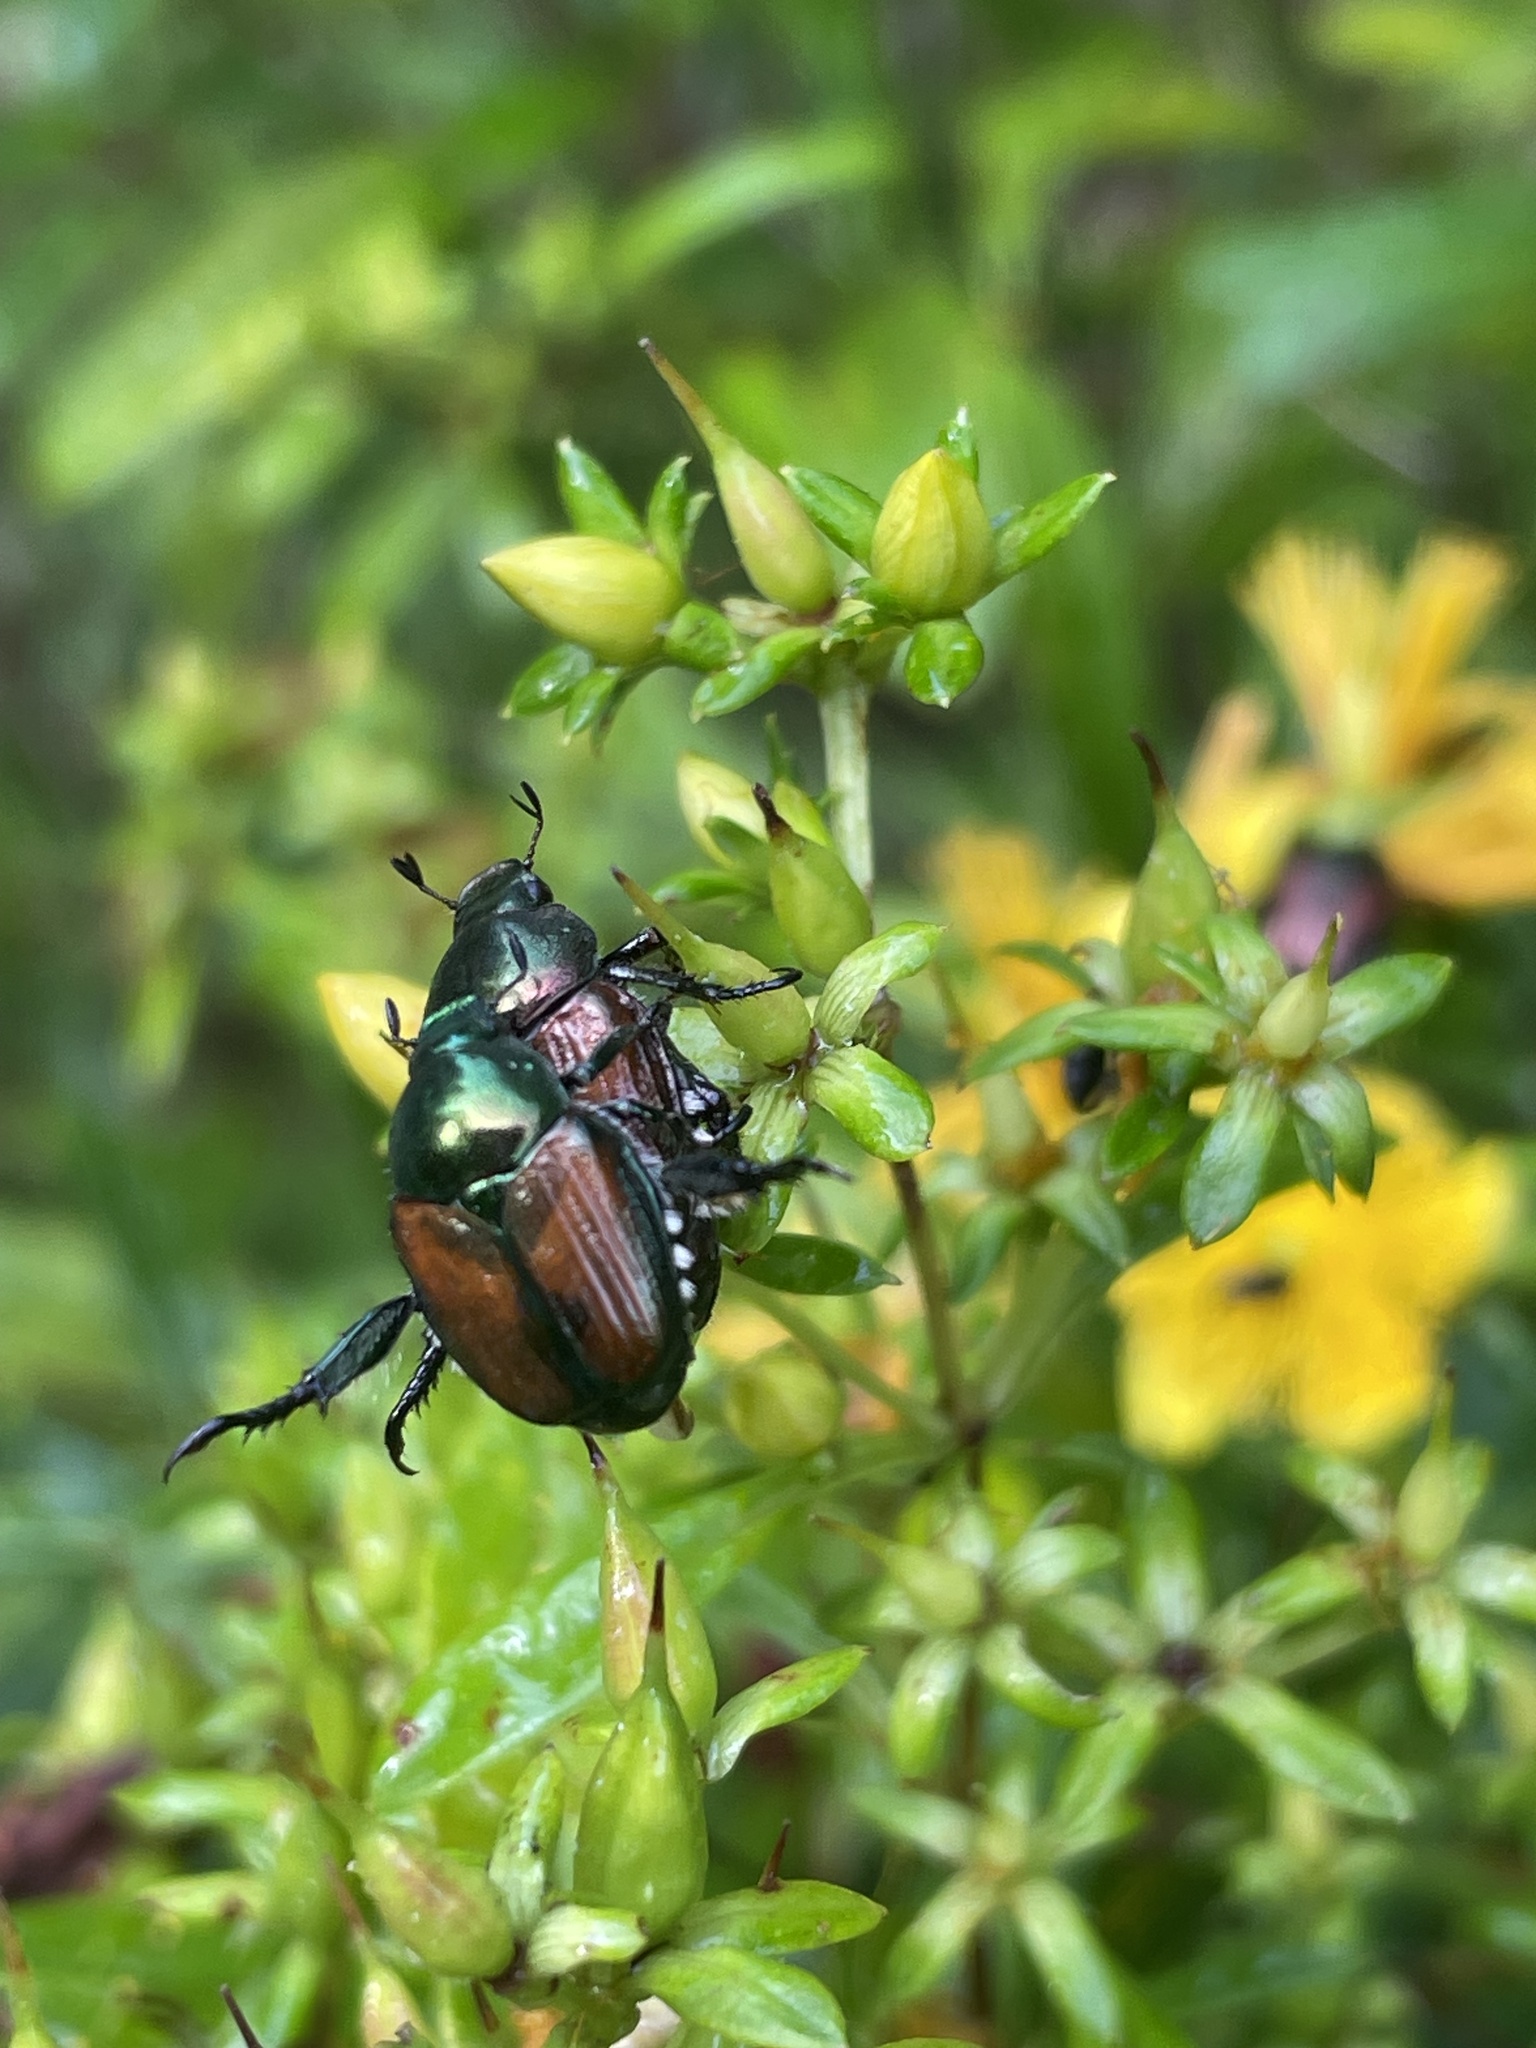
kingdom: Animalia
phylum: Arthropoda
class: Insecta
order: Coleoptera
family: Scarabaeidae
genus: Popillia
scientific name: Popillia japonica
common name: Japanese beetle
